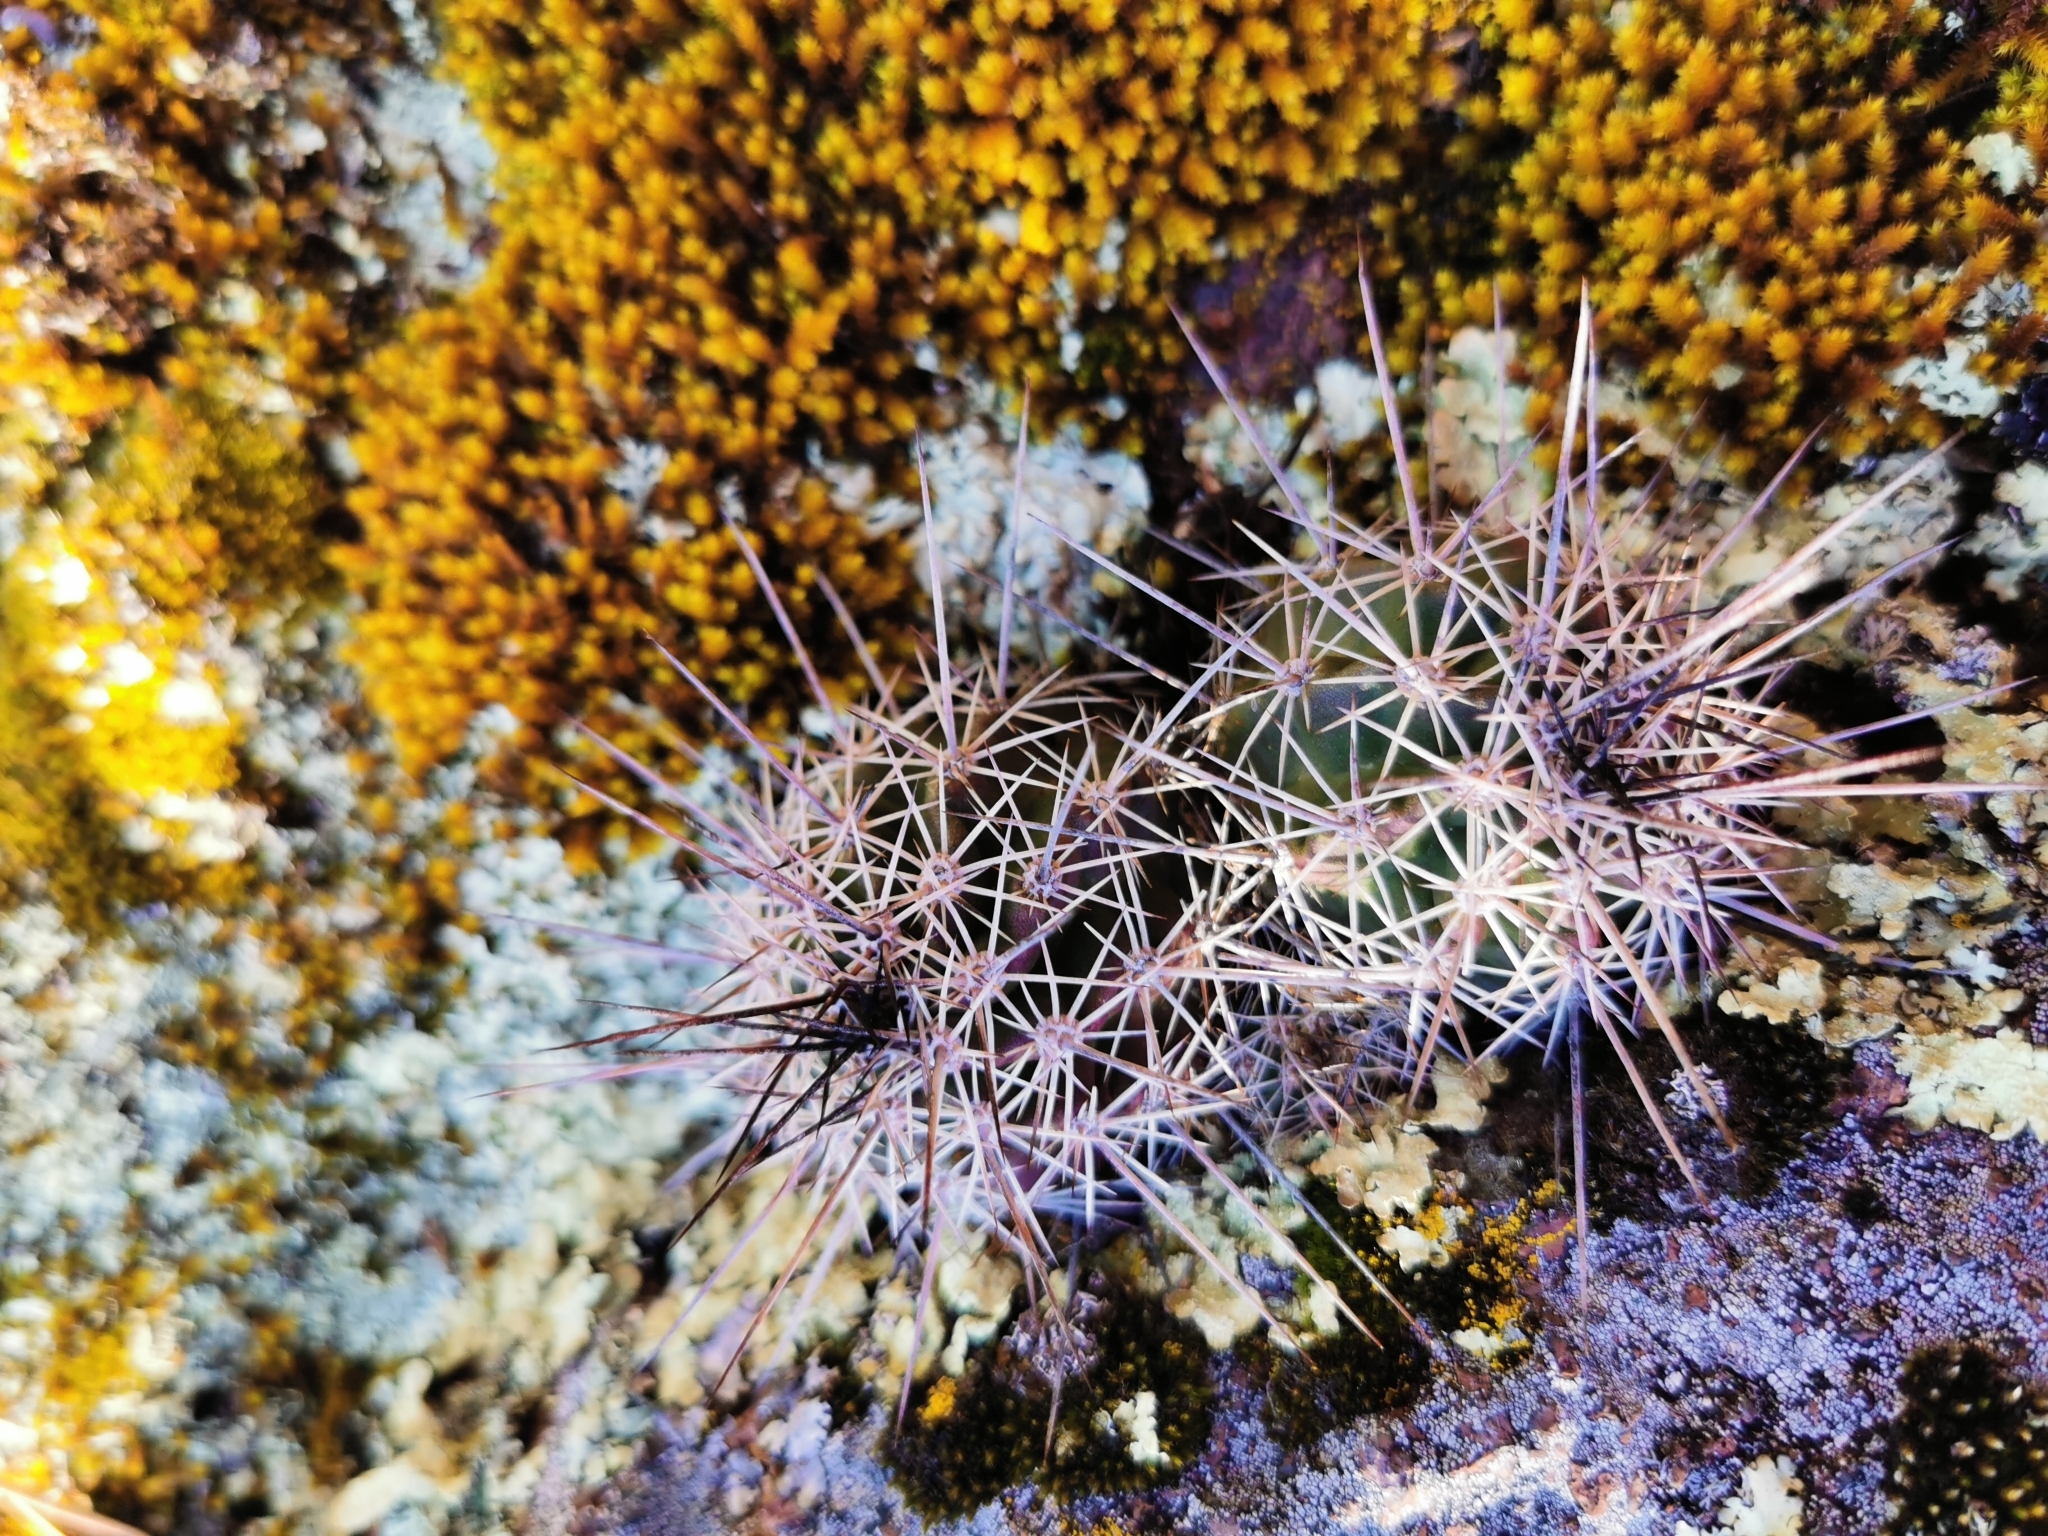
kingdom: Plantae
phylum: Tracheophyta
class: Magnoliopsida
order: Caryophyllales
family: Cactaceae
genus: Echinocereus
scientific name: Echinocereus polyacanthus
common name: Mojave mound cactus
